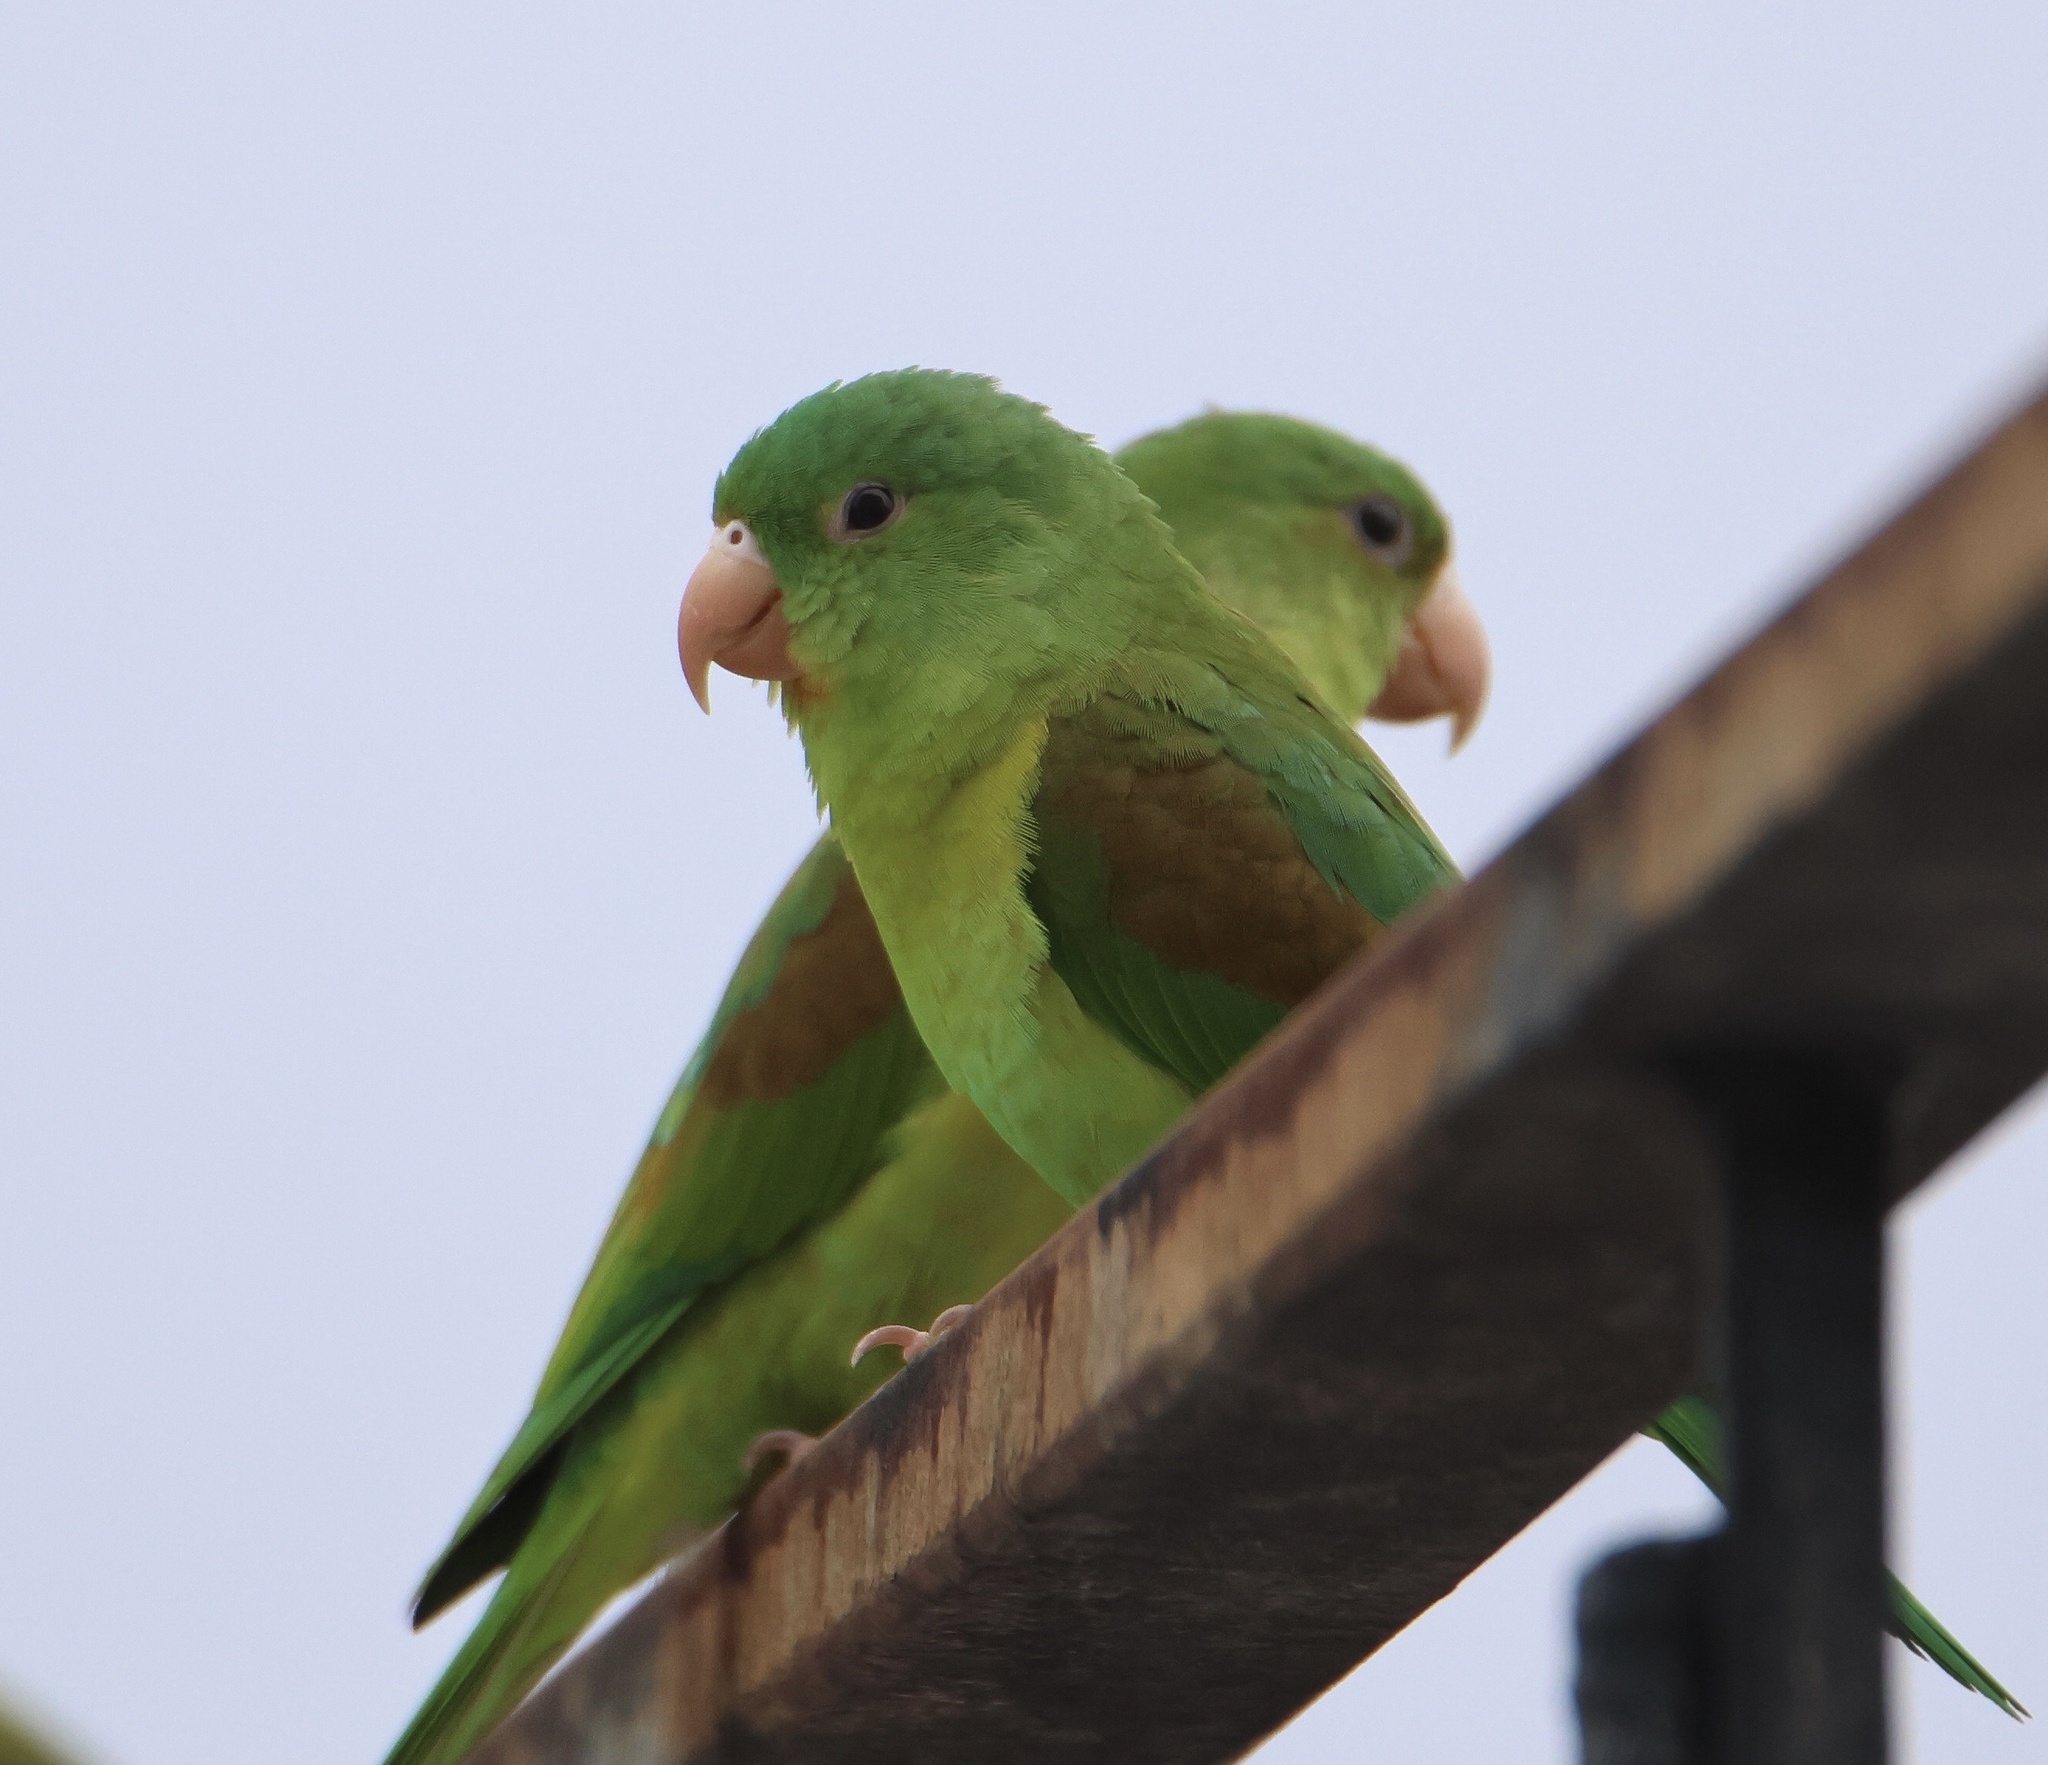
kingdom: Animalia
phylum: Chordata
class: Aves
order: Psittaciformes
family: Psittacidae
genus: Brotogeris
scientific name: Brotogeris jugularis
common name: Orange-chinned parakeet
